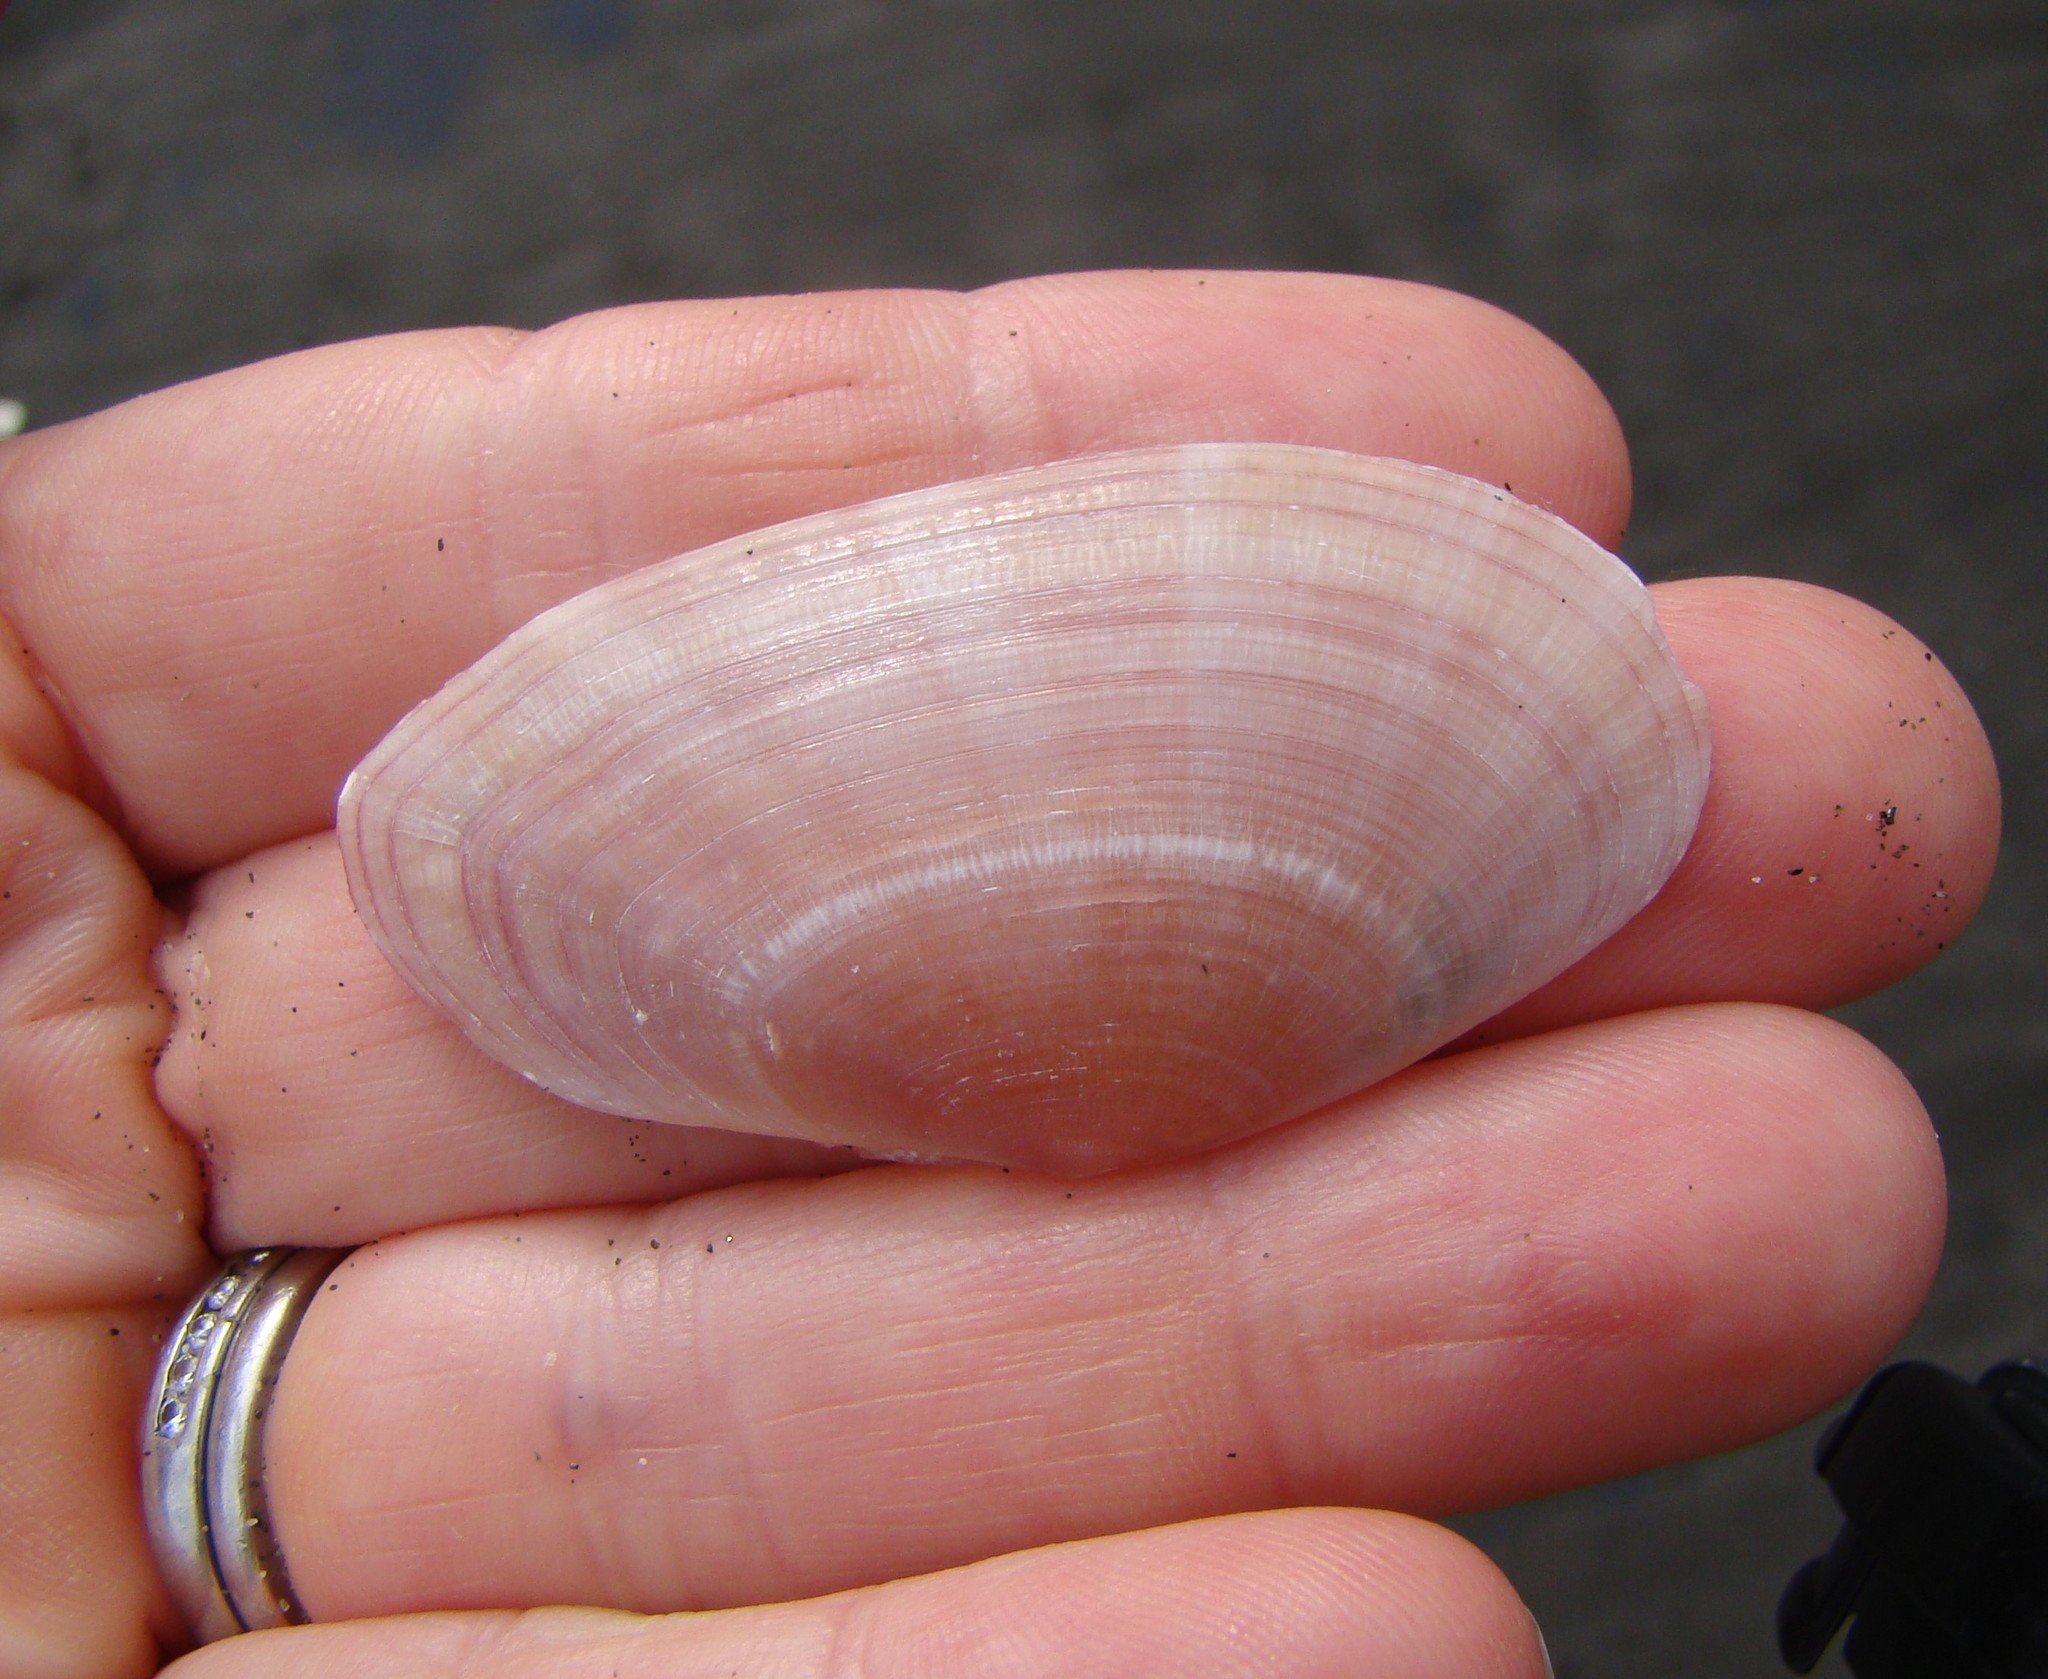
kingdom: Animalia
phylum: Mollusca
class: Bivalvia
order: Cardiida
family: Psammobiidae
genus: Gari
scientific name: Gari convexa
